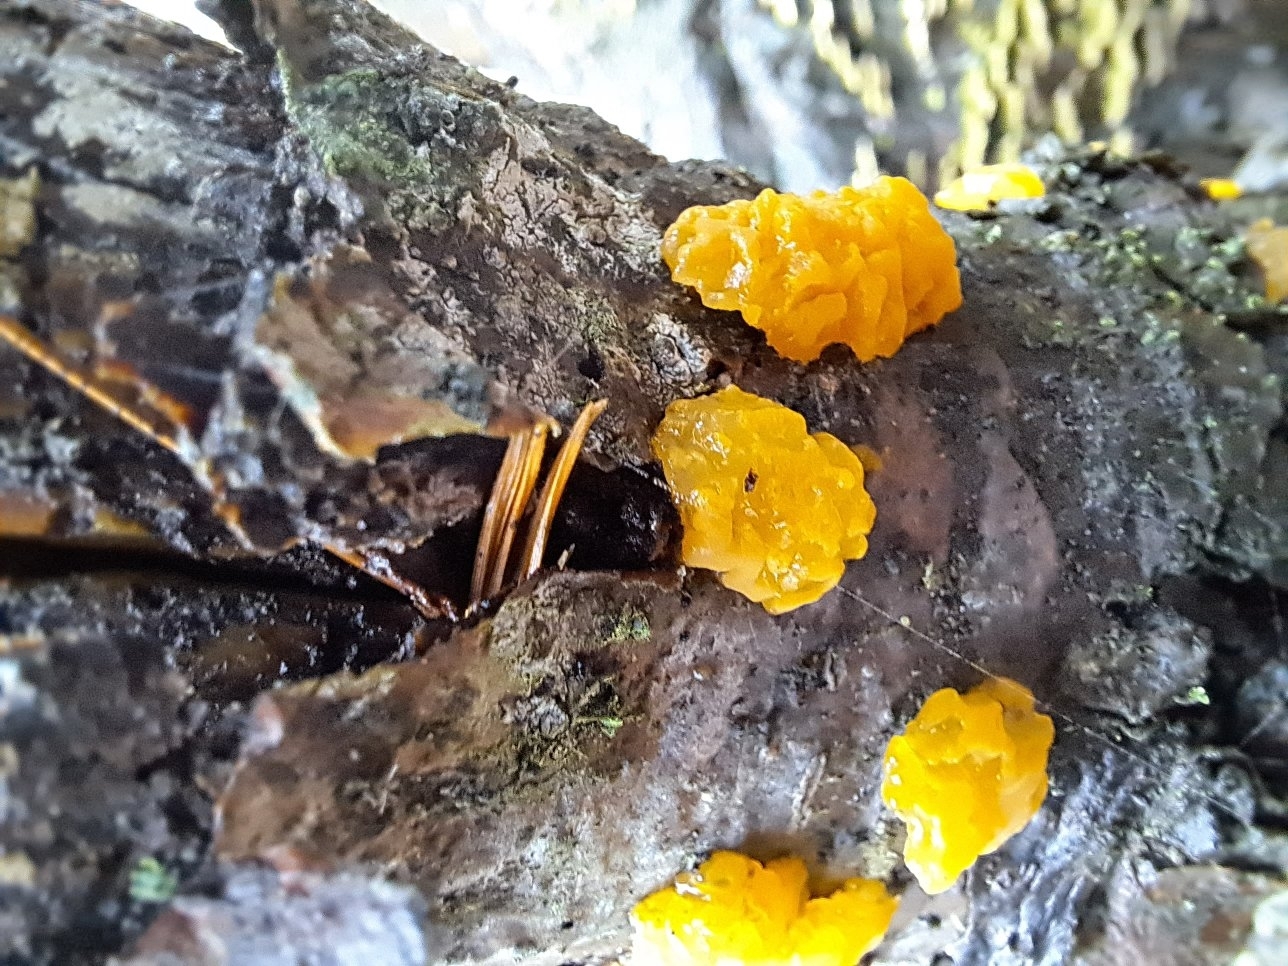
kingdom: Fungi
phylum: Basidiomycota
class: Tremellomycetes
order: Tremellales
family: Tremellaceae
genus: Tremella
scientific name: Tremella mesenterica
